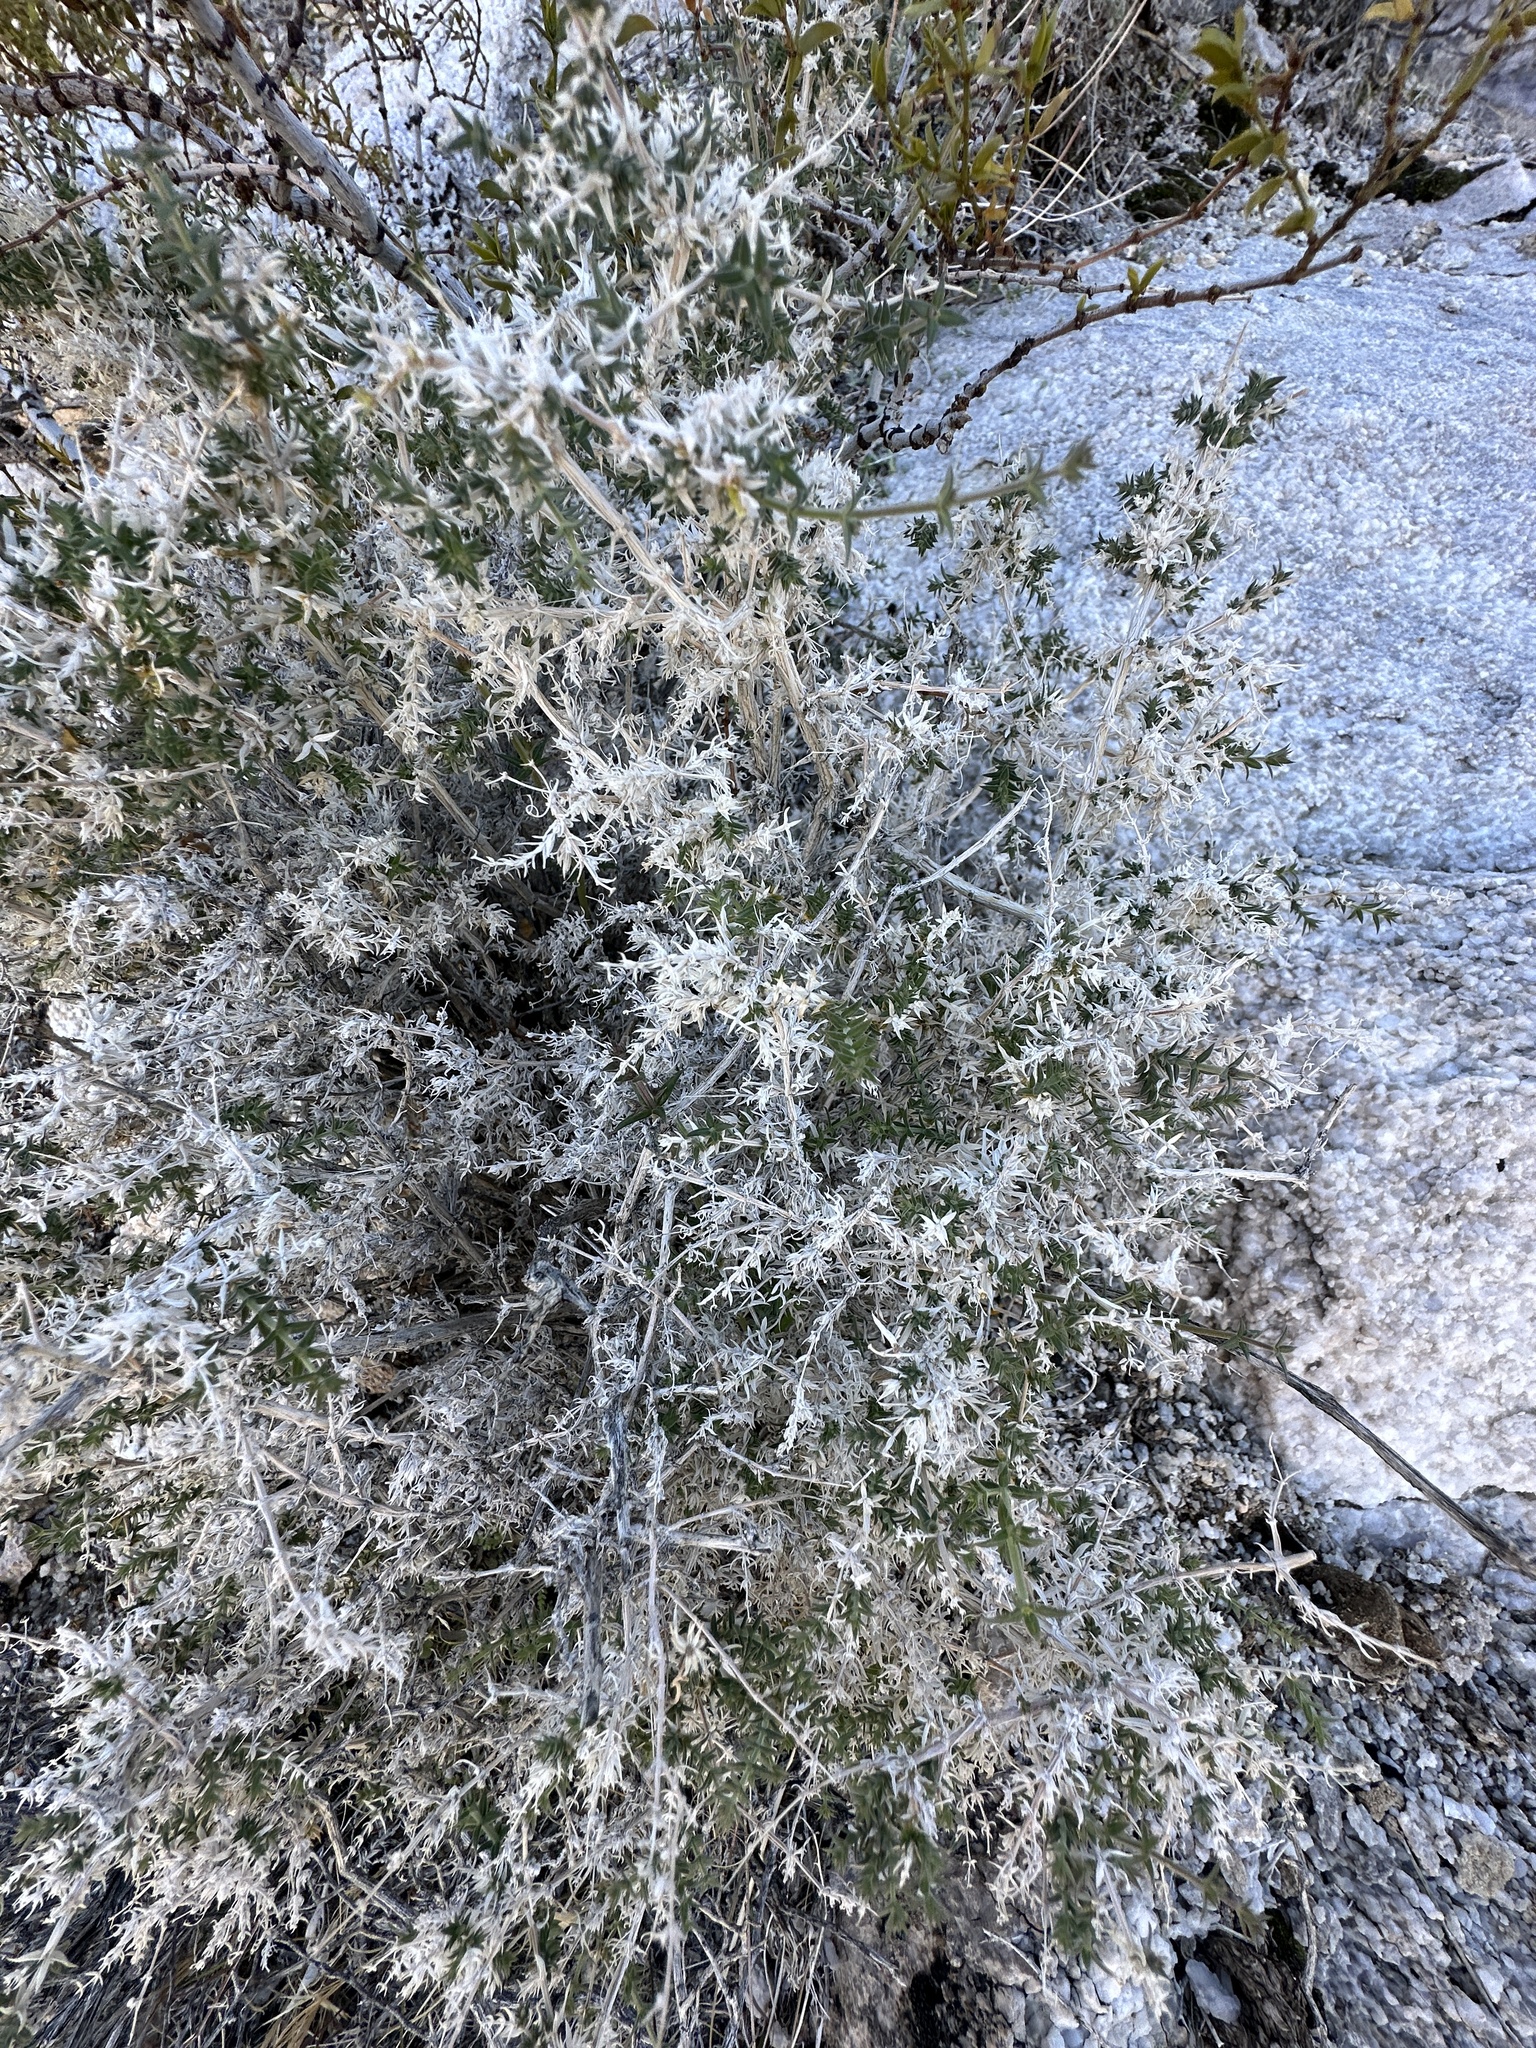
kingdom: Plantae
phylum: Tracheophyta
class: Magnoliopsida
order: Gentianales
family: Rubiaceae
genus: Galium
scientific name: Galium stellatum
